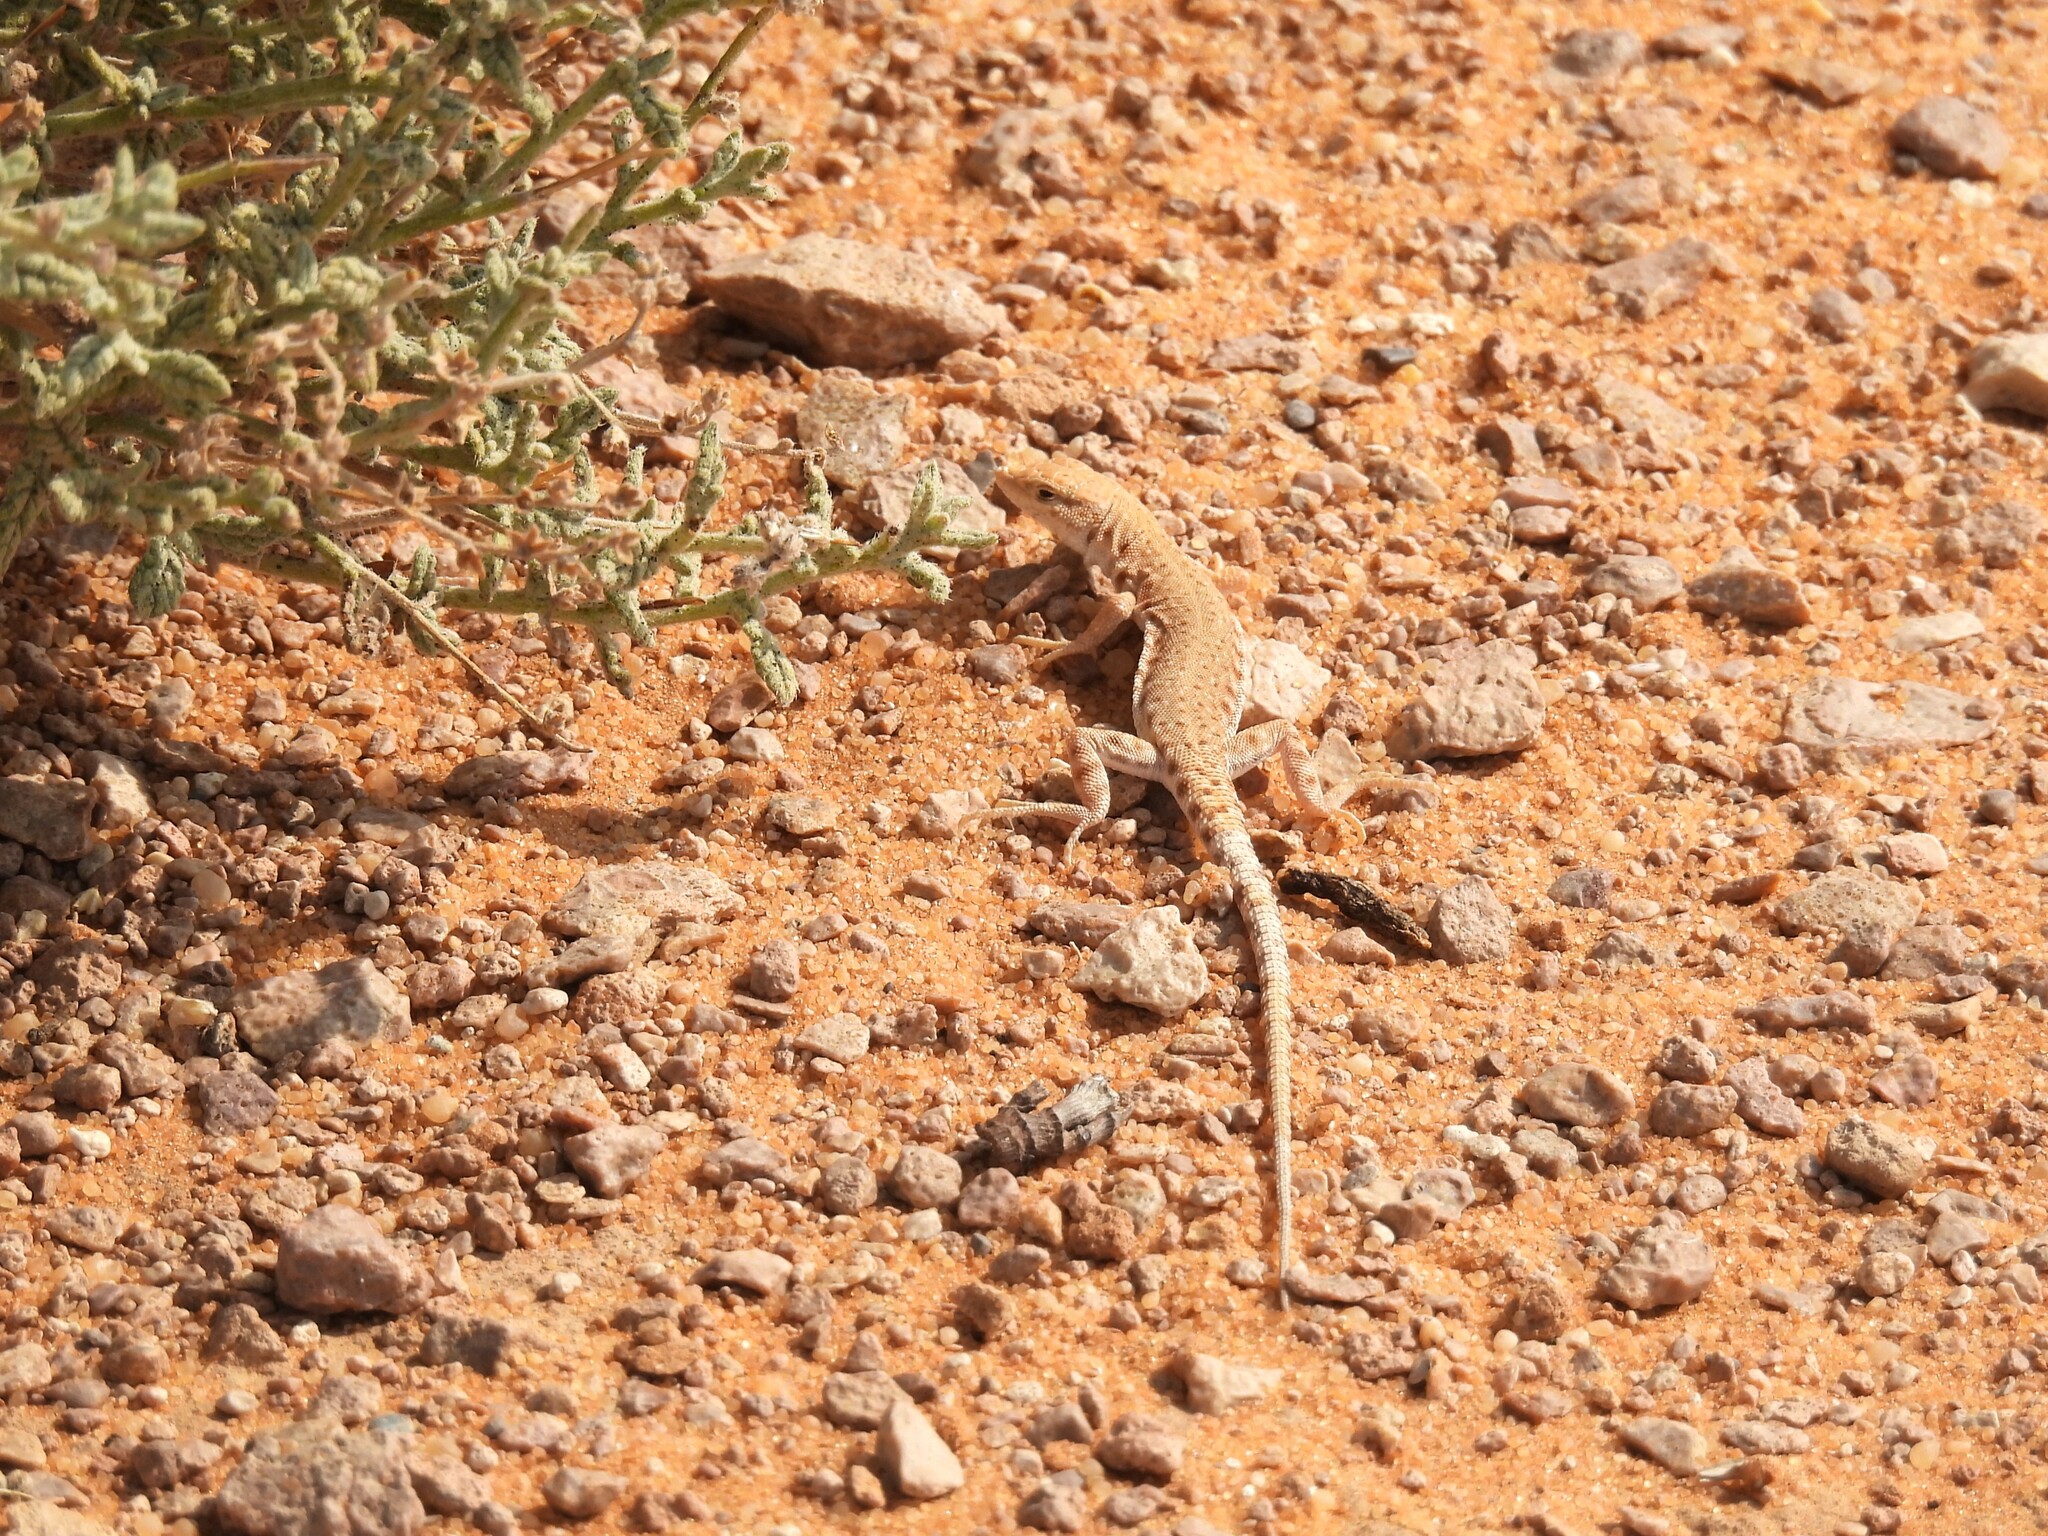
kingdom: Animalia
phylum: Chordata
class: Squamata
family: Lacertidae
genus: Mesalina
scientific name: Mesalina brevirostris
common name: Blanford's short-nosed desert lizard
